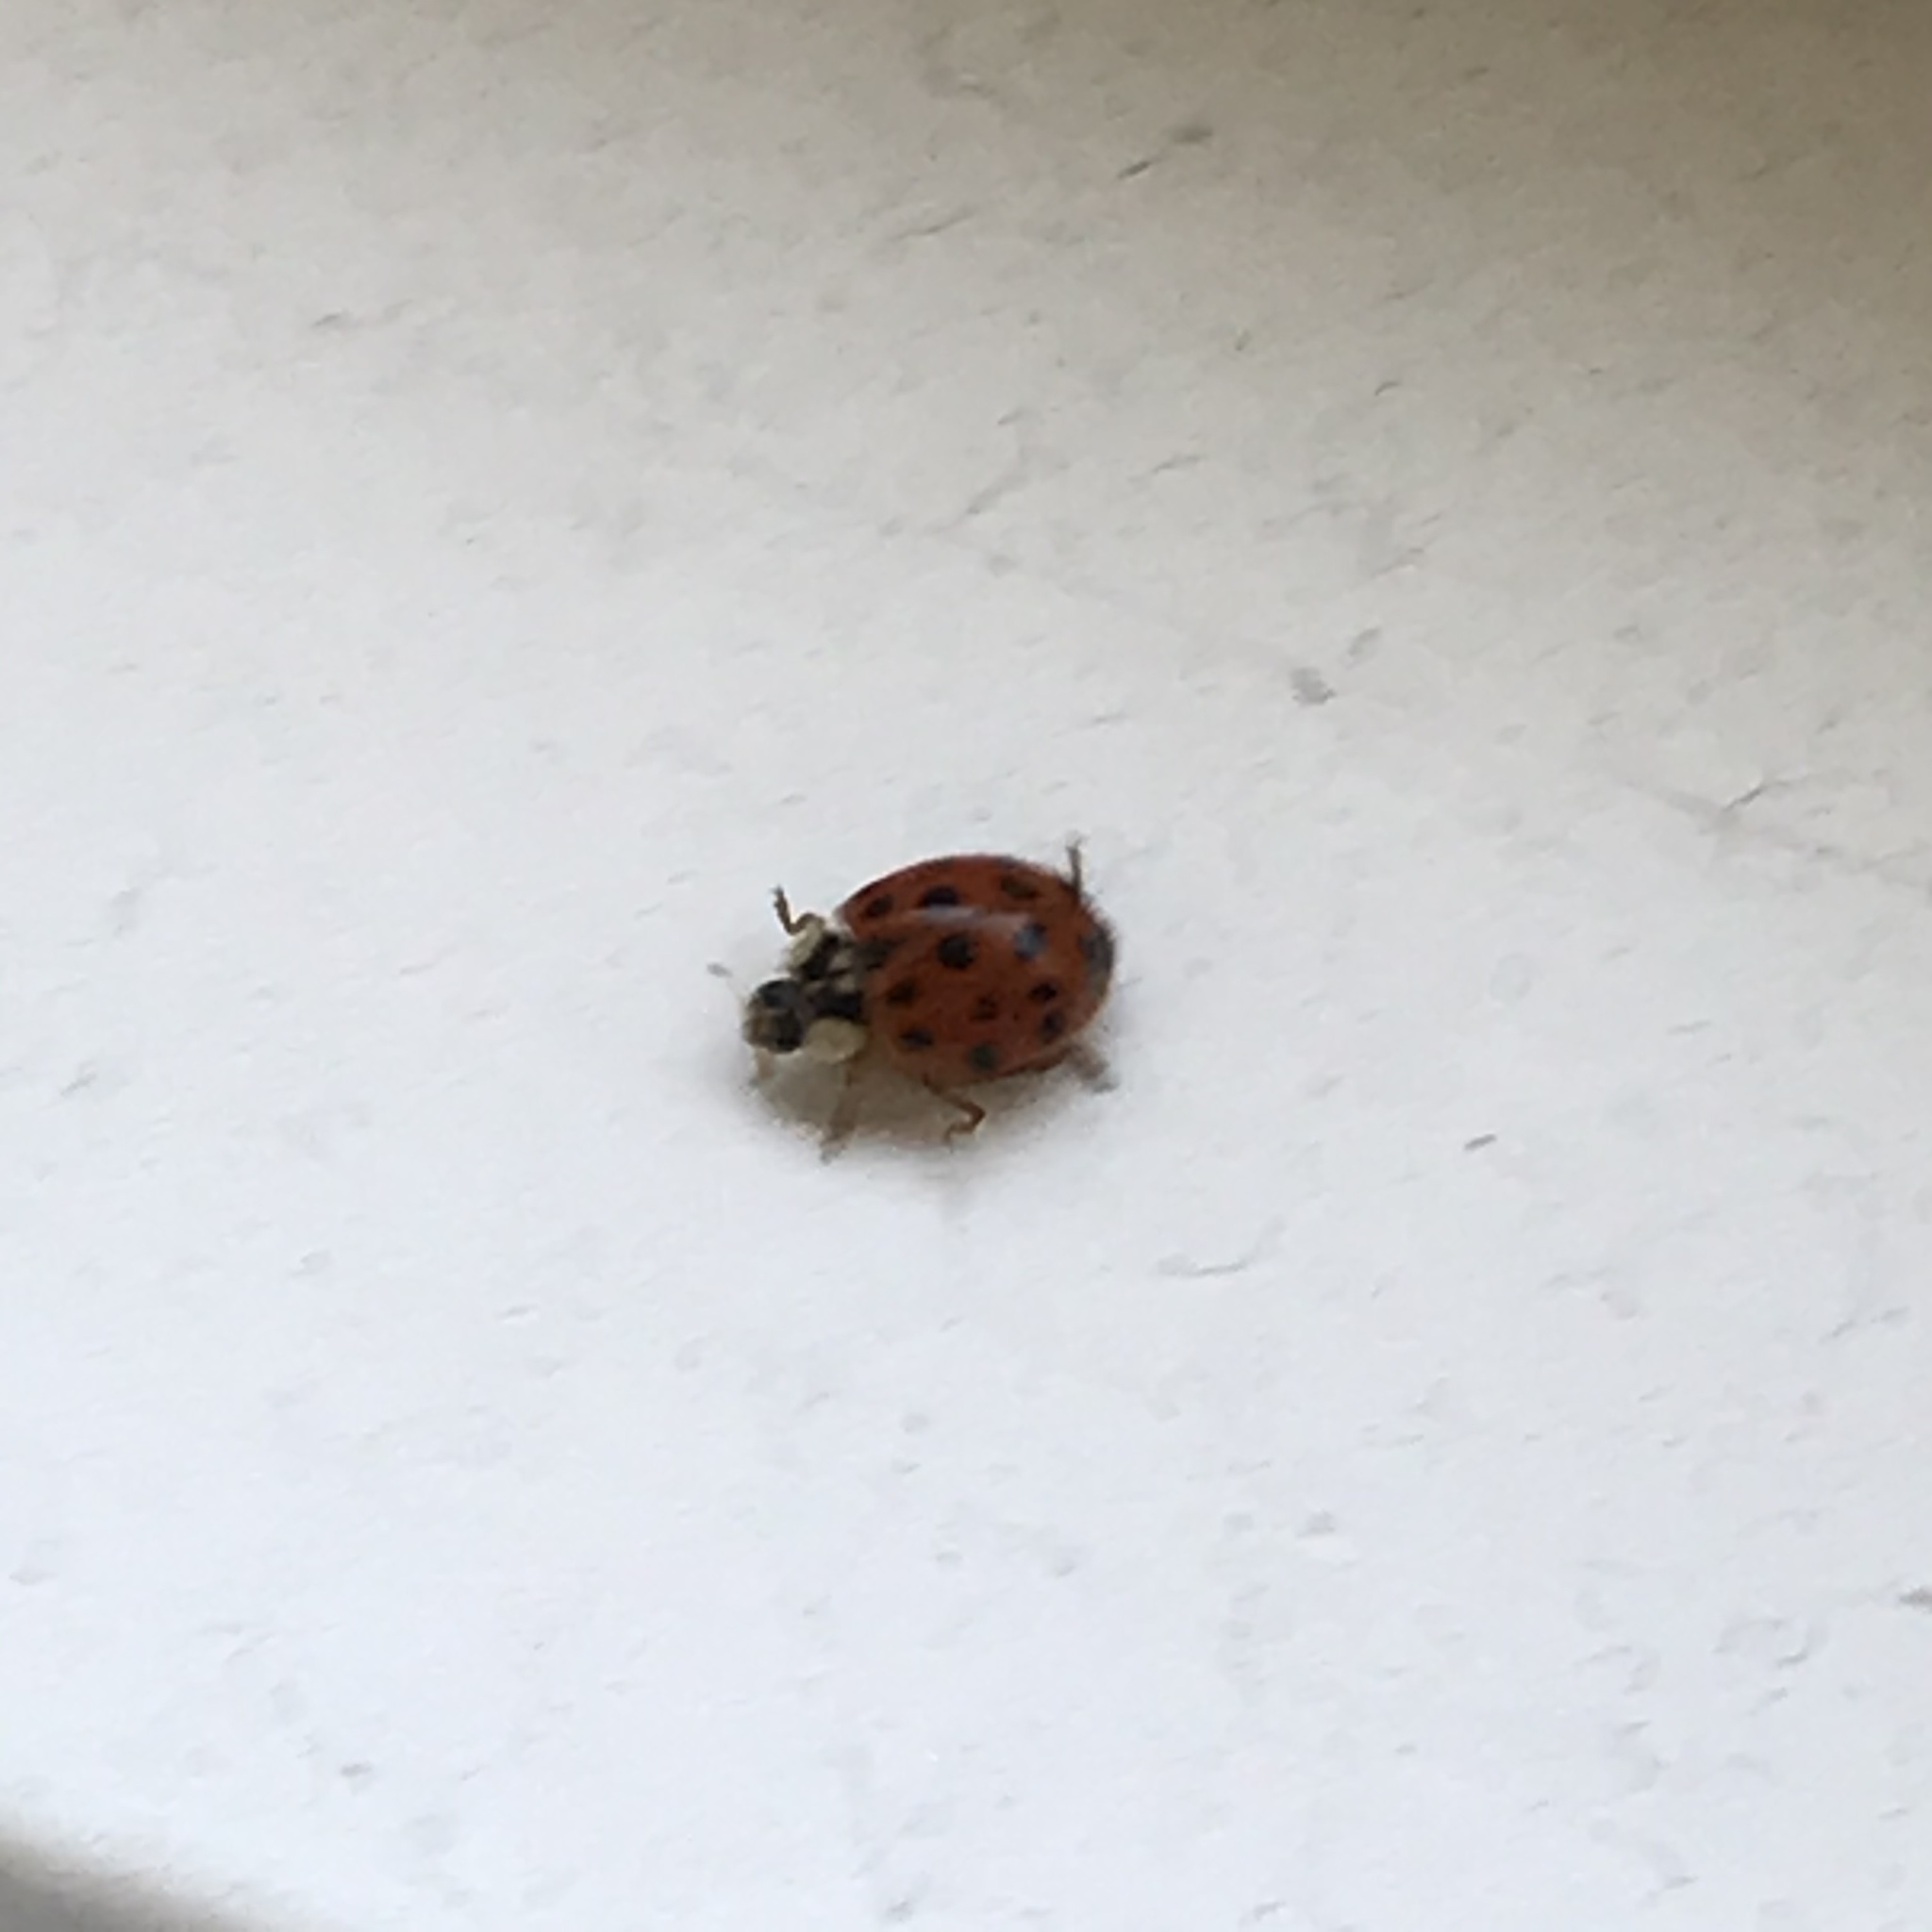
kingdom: Animalia
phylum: Arthropoda
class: Insecta
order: Coleoptera
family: Coccinellidae
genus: Harmonia
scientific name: Harmonia axyridis
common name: Harlequin ladybird
